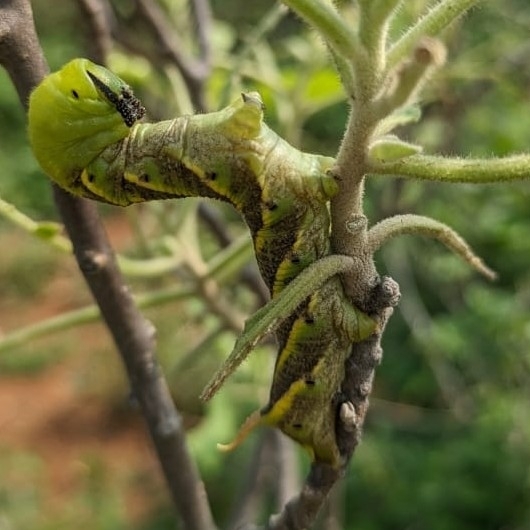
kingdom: Animalia
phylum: Arthropoda
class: Insecta
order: Lepidoptera
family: Sphingidae
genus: Acherontia
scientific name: Acherontia styx
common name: Death's-head hawk moth
